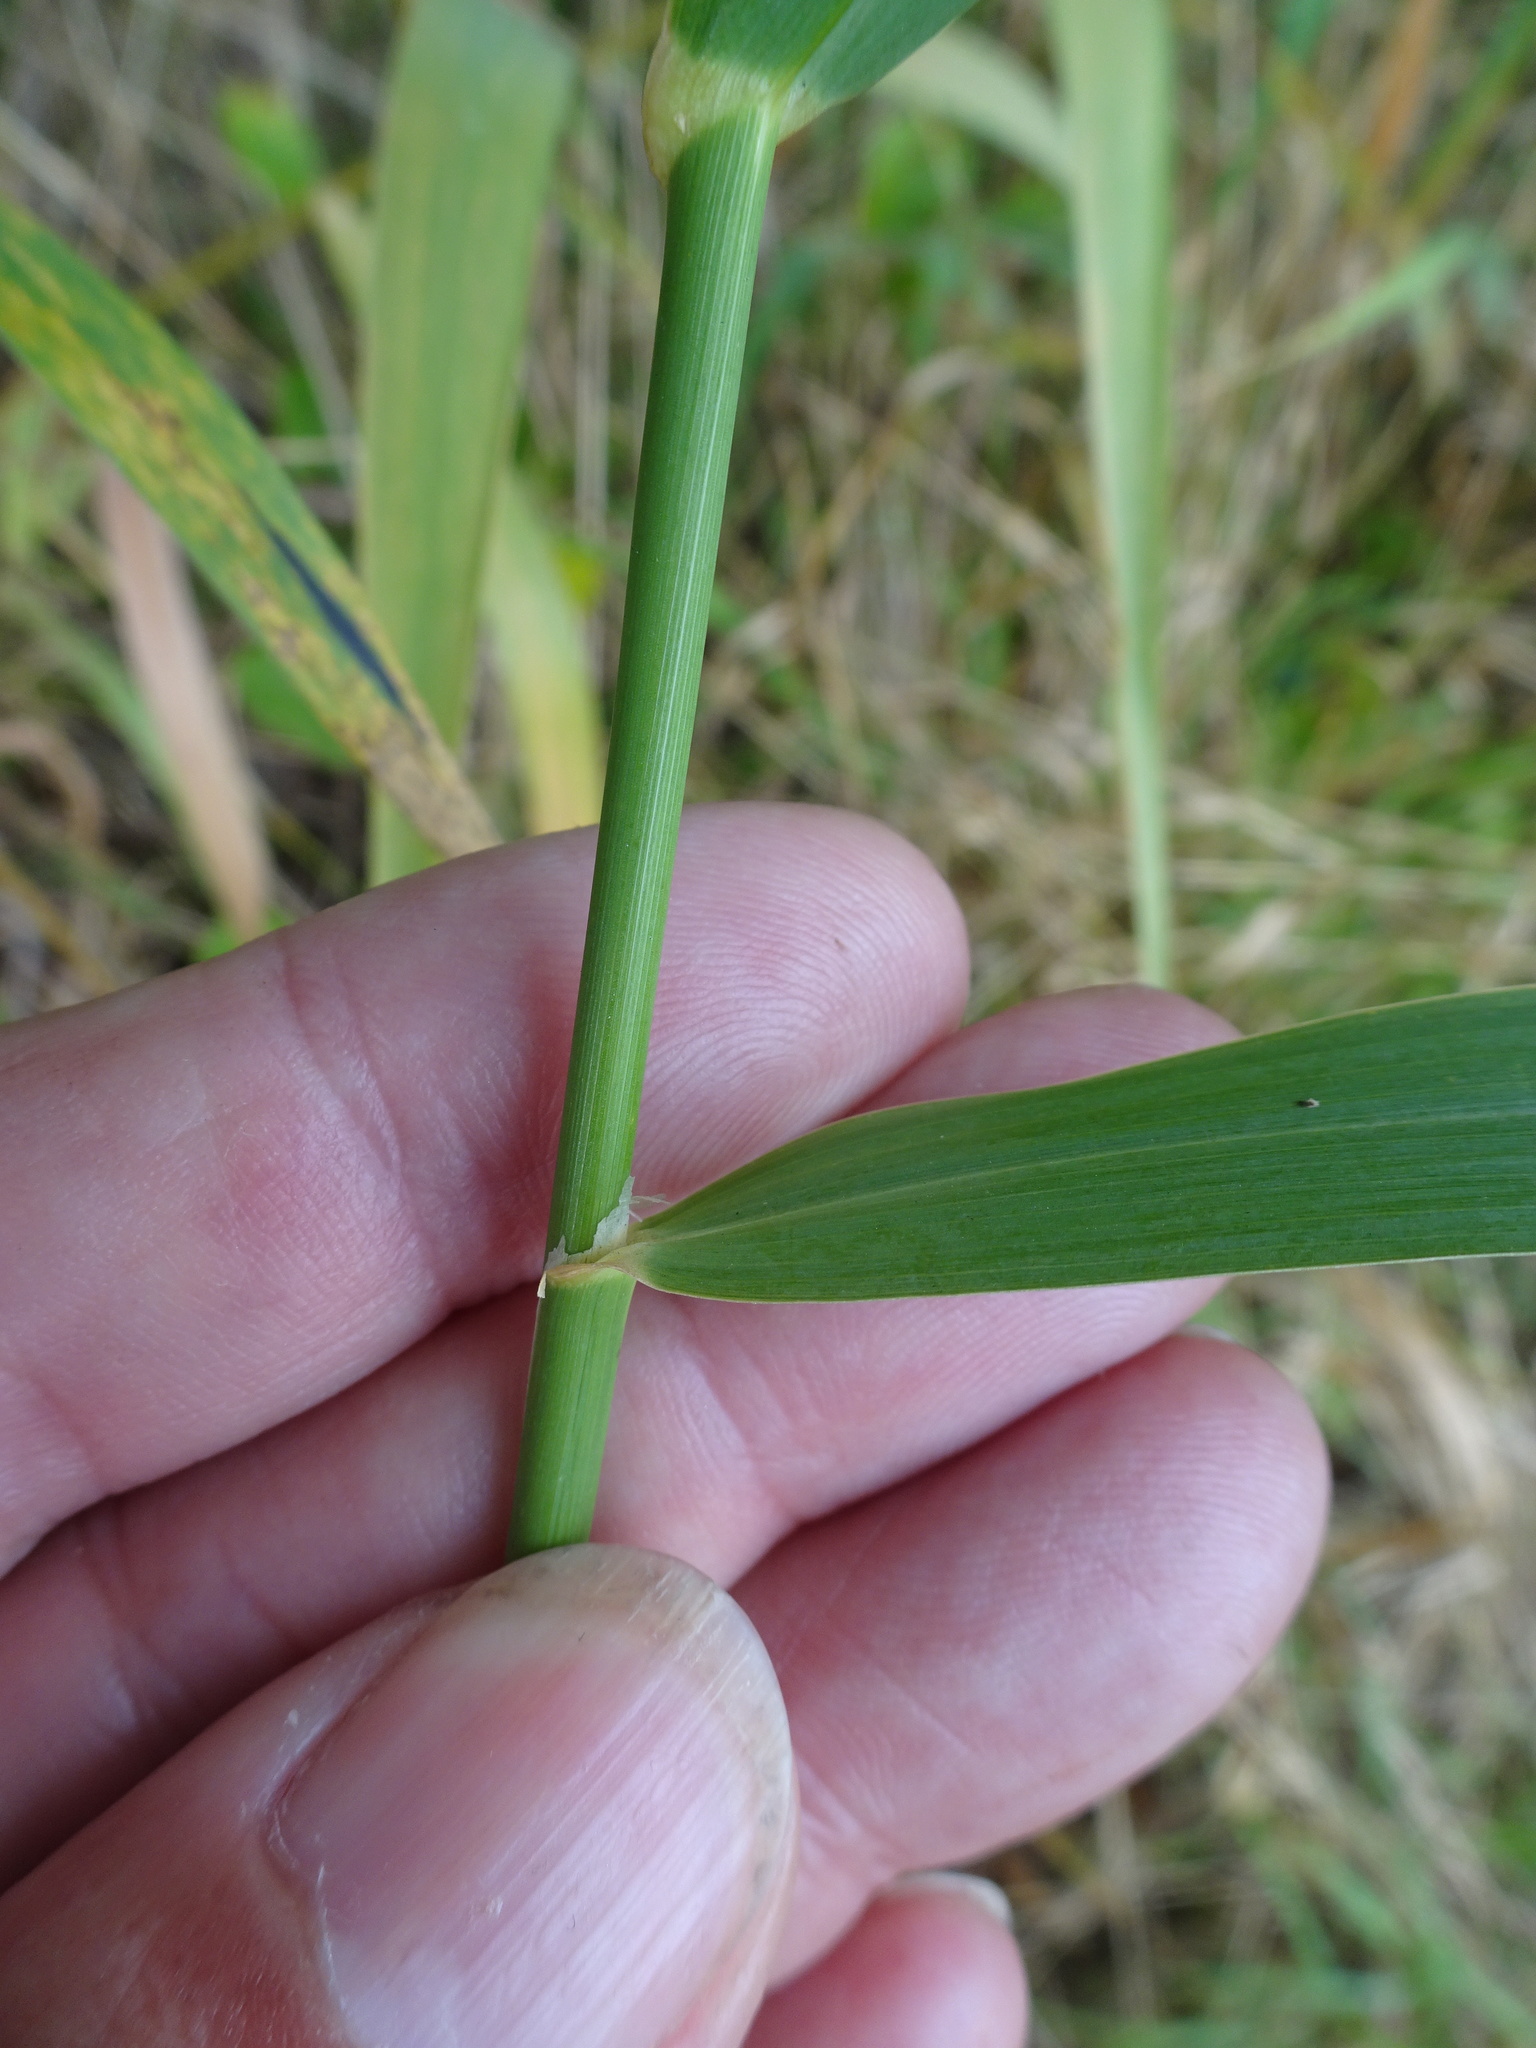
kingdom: Plantae
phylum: Tracheophyta
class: Liliopsida
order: Poales
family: Poaceae
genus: Phalaris
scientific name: Phalaris arundinacea
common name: Reed canary-grass
